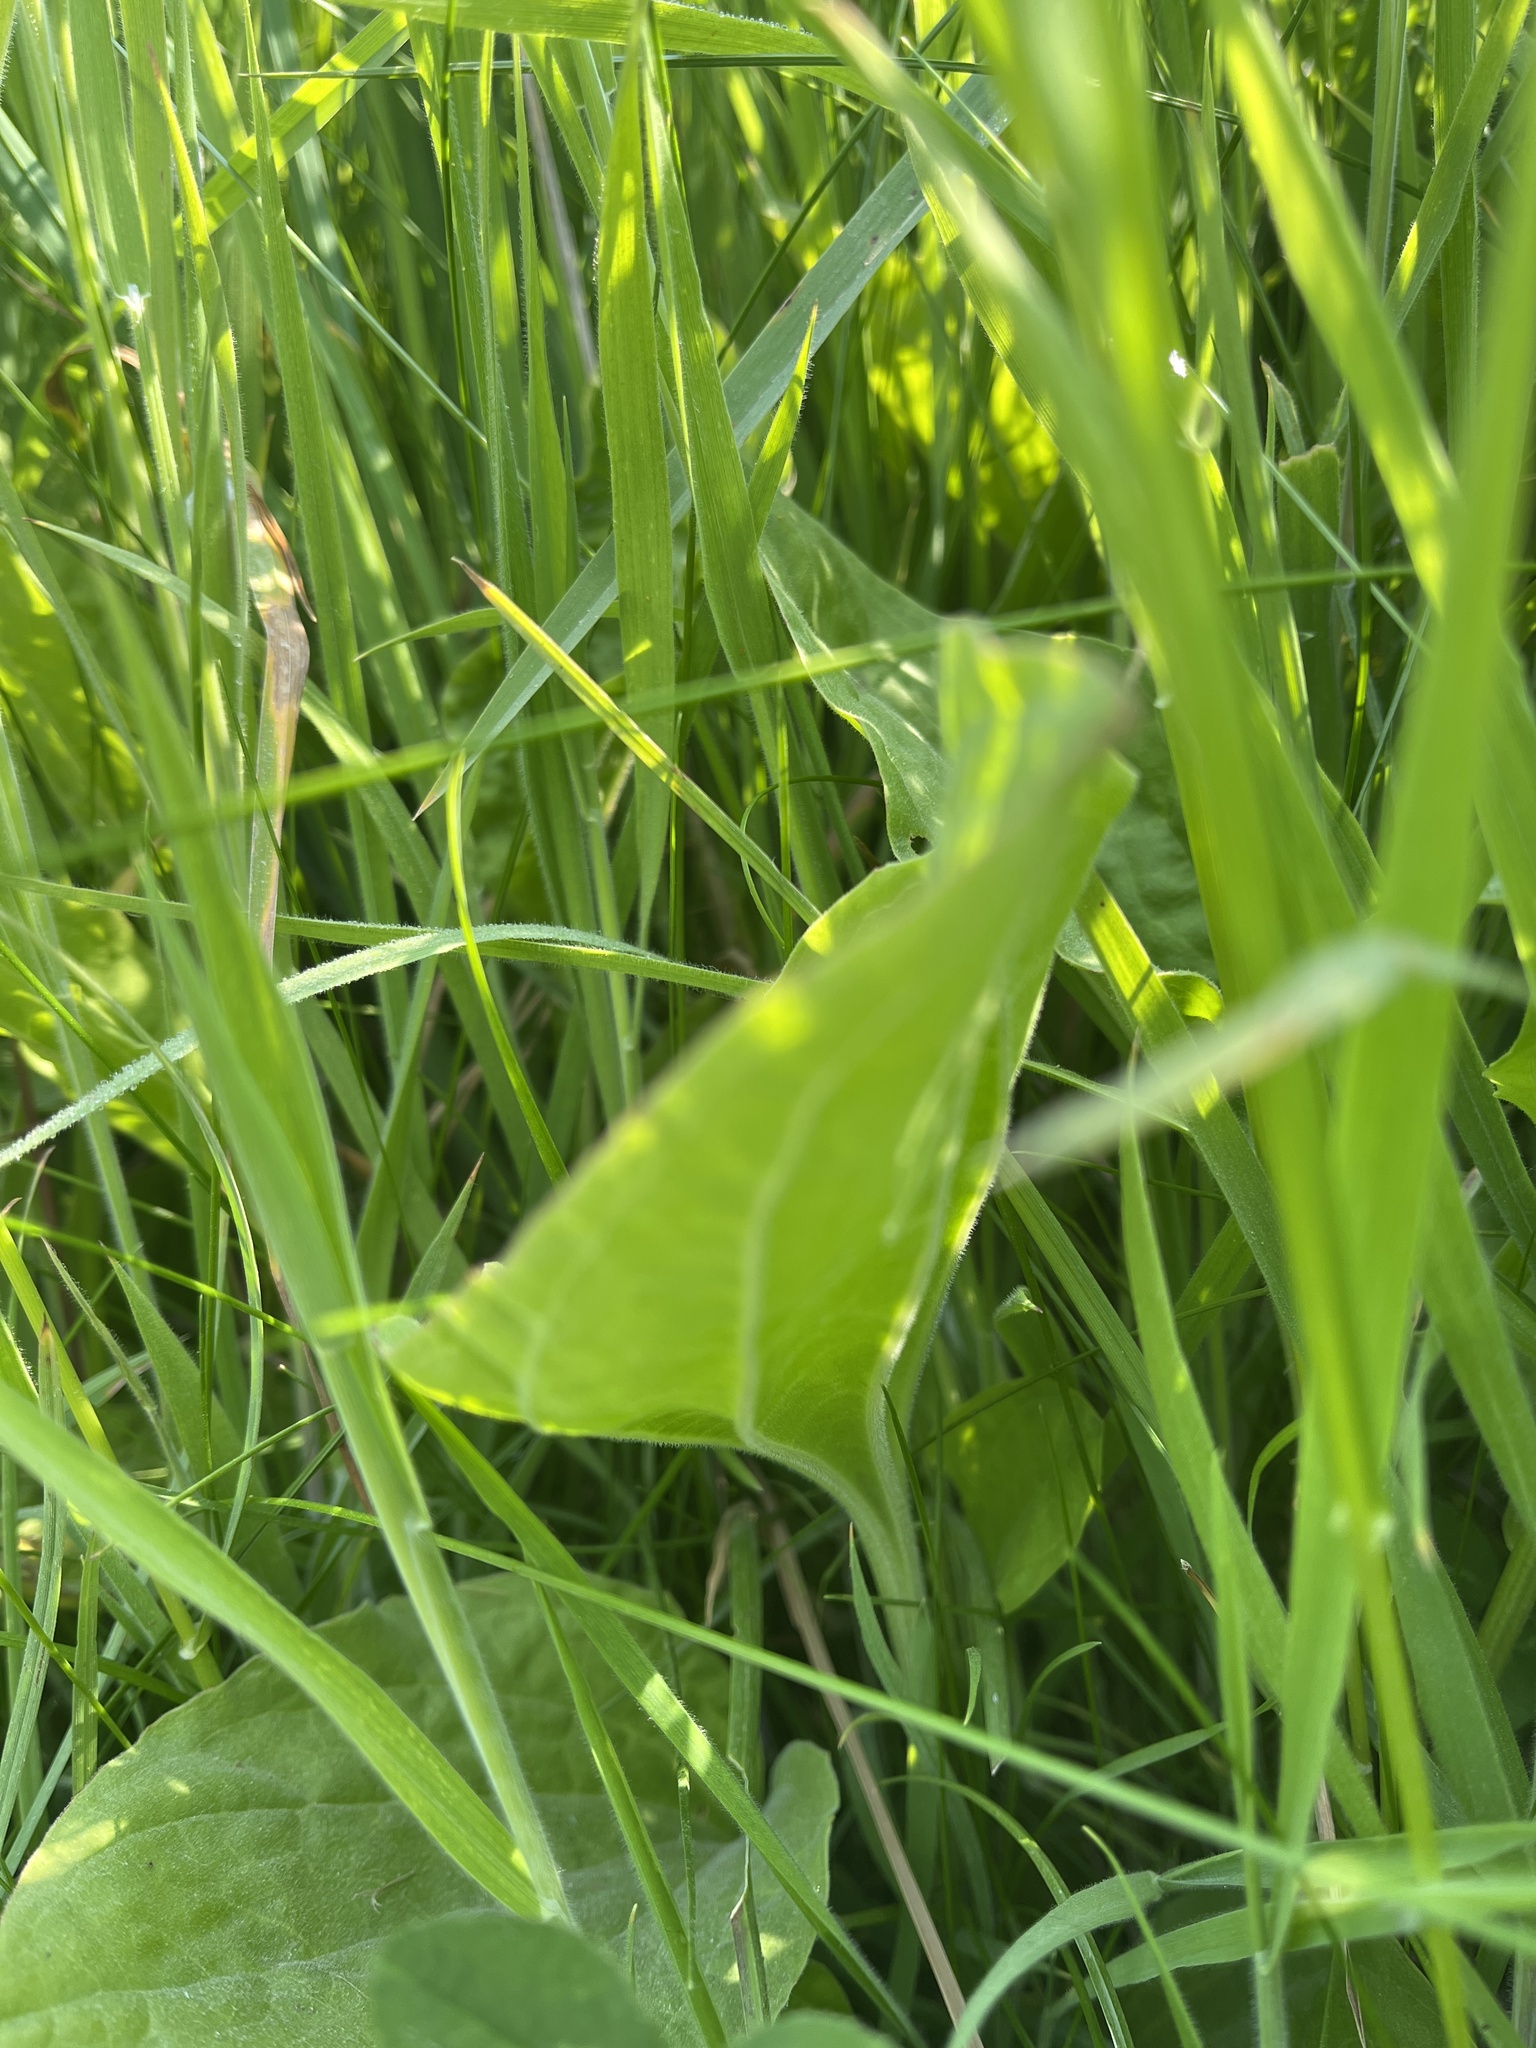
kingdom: Plantae
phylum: Tracheophyta
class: Magnoliopsida
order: Lamiales
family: Plantaginaceae
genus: Plantago
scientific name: Plantago major
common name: Common plantain
